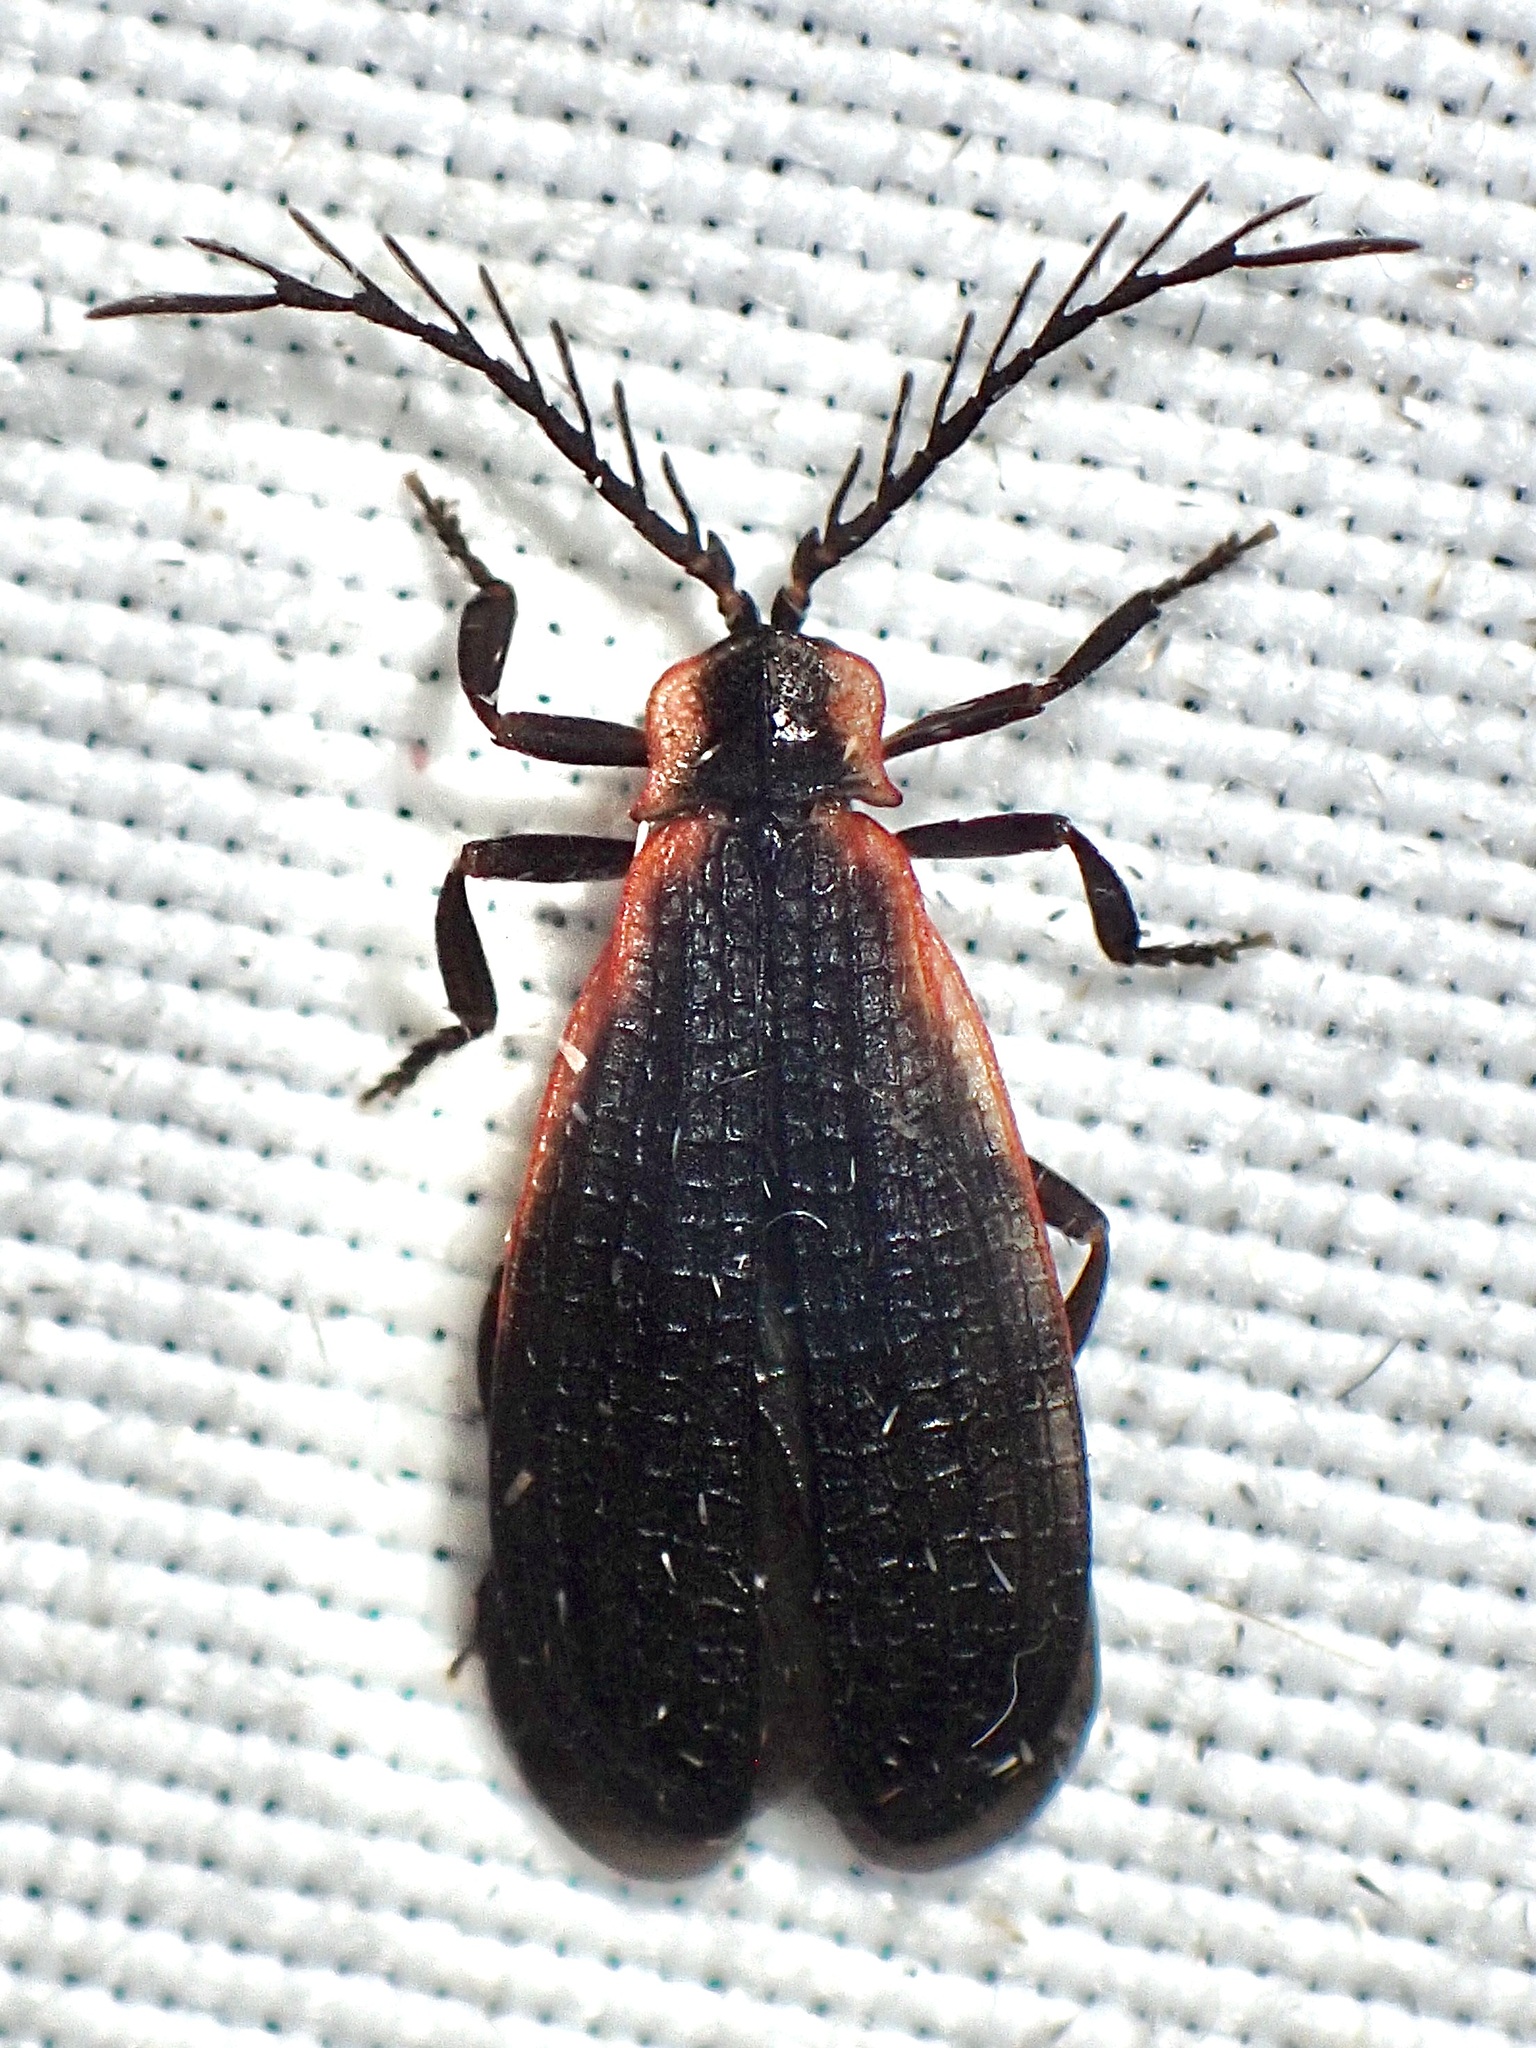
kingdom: Animalia
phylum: Arthropoda
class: Insecta
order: Coleoptera
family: Lycidae
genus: Caenia
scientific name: Caenia amplicornis
